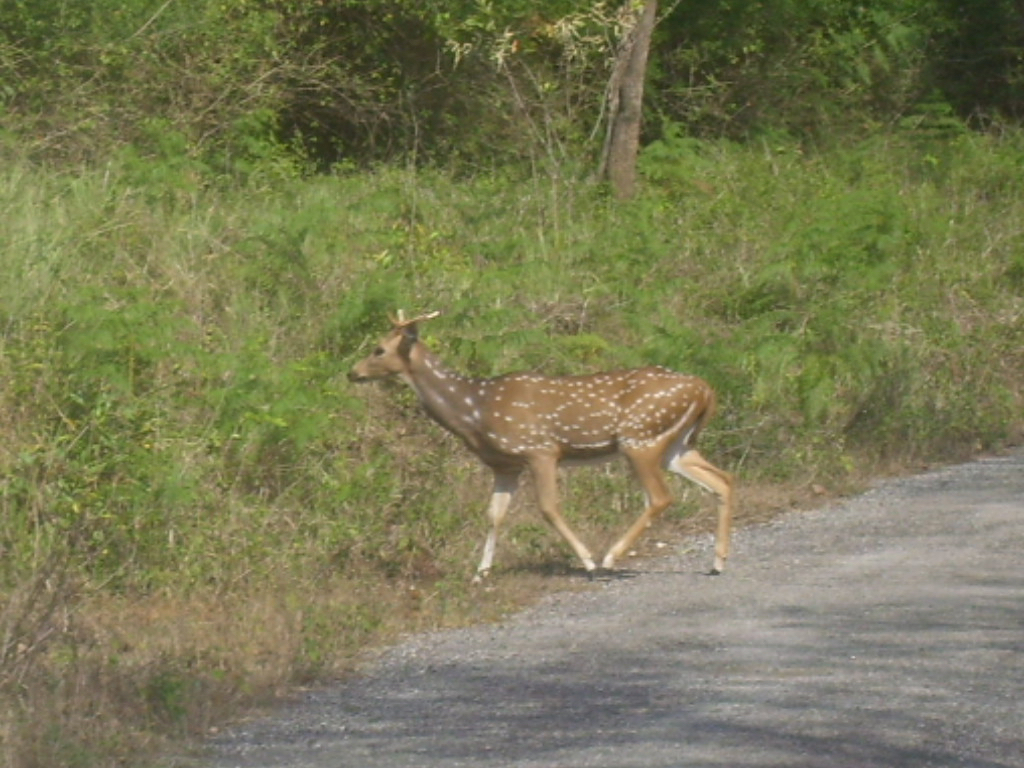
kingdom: Animalia
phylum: Chordata
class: Mammalia
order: Artiodactyla
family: Cervidae
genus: Axis
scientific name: Axis axis
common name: Chital
